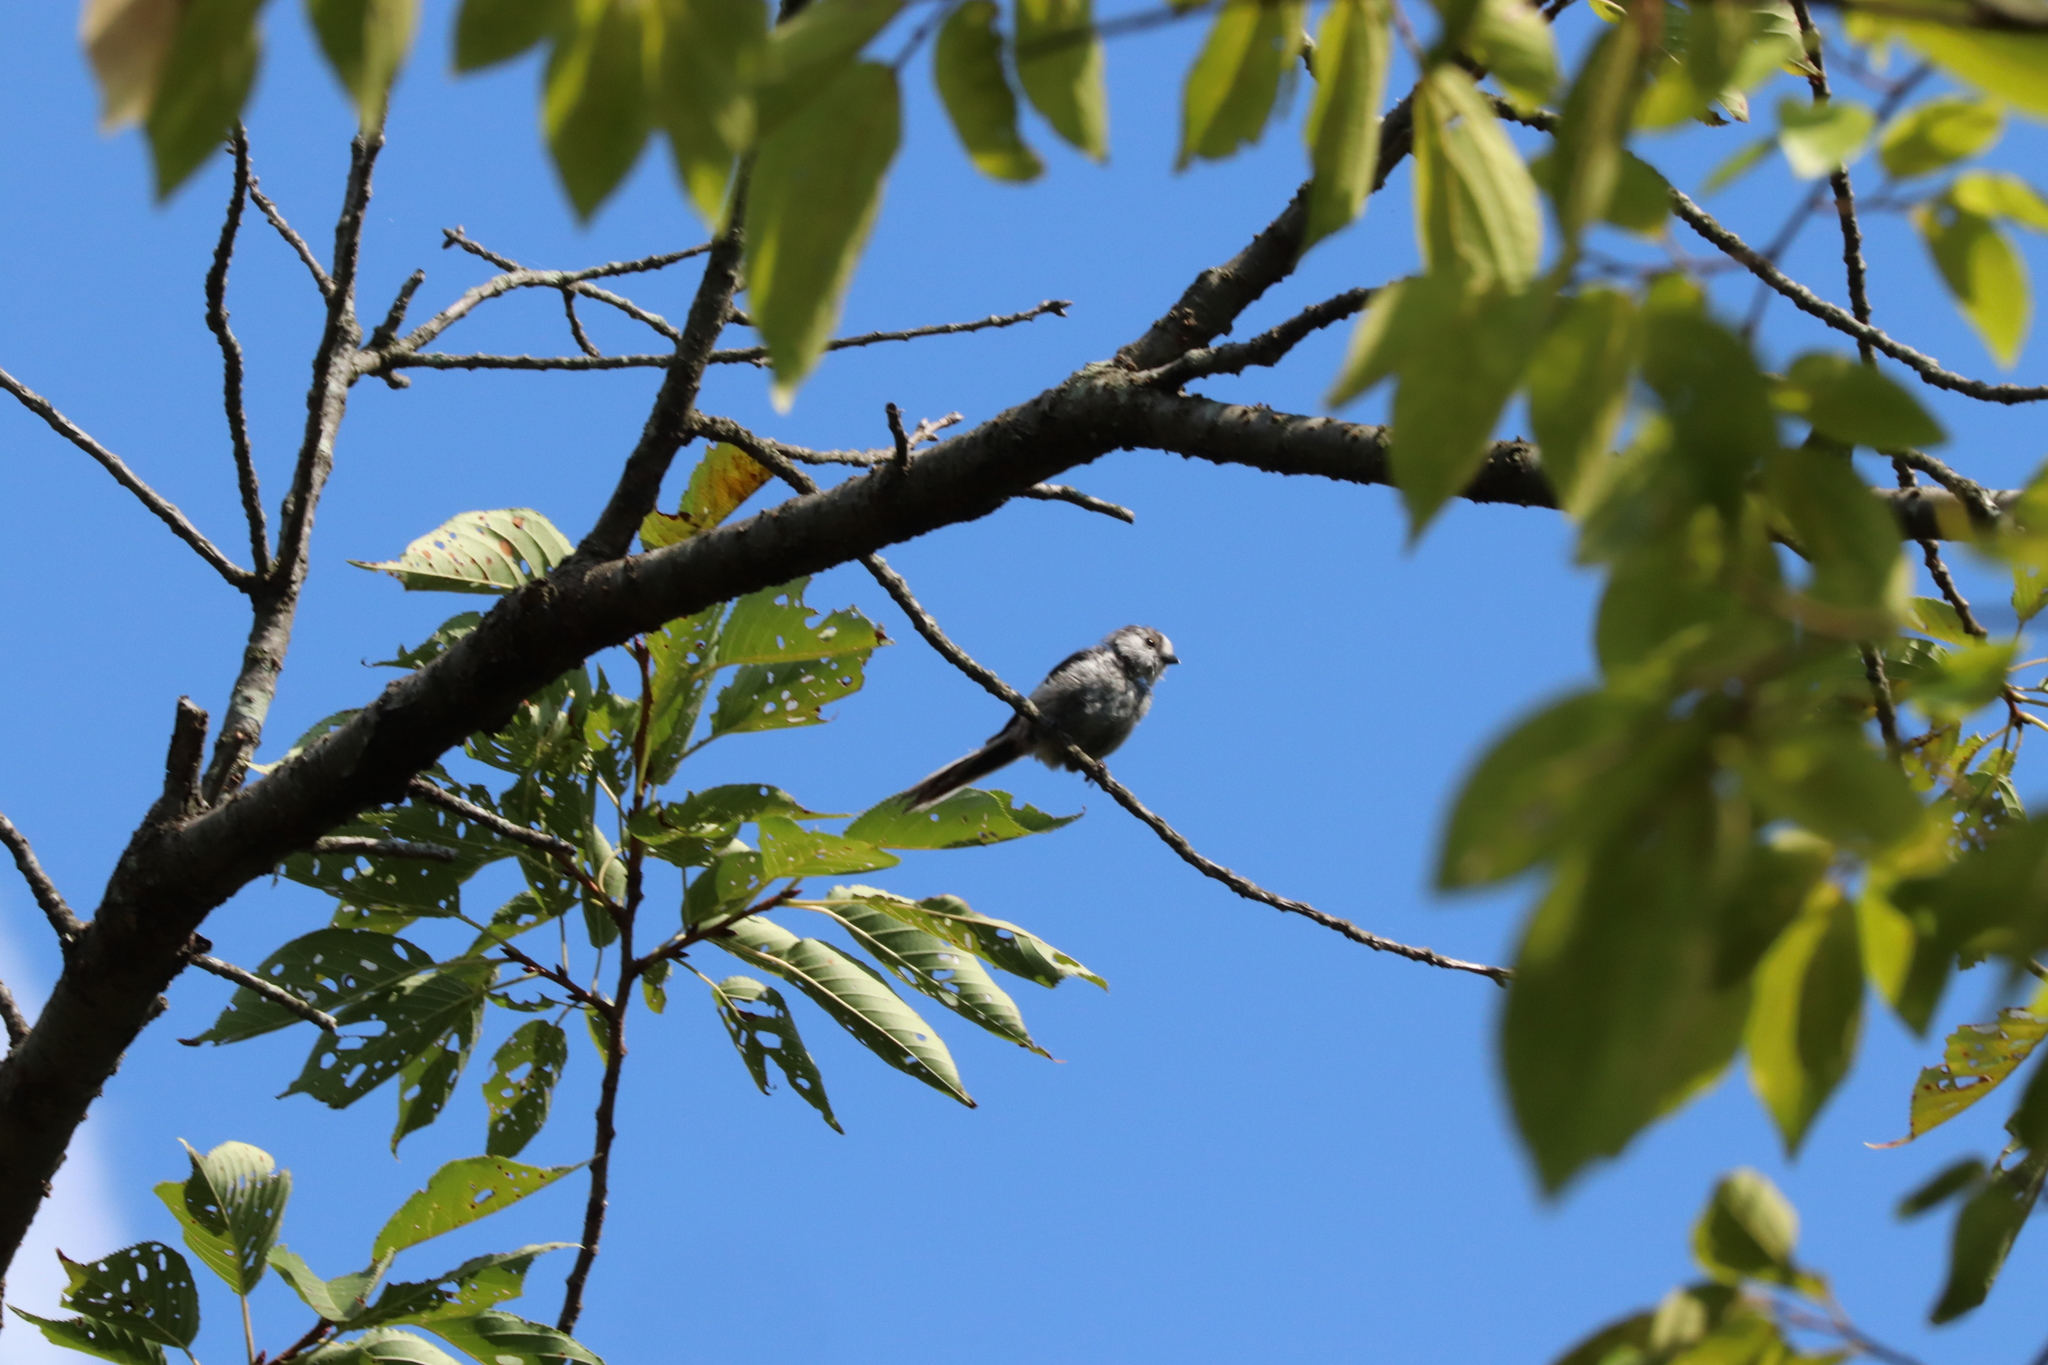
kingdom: Animalia
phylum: Chordata
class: Aves
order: Passeriformes
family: Aegithalidae
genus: Aegithalos
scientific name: Aegithalos caudatus
